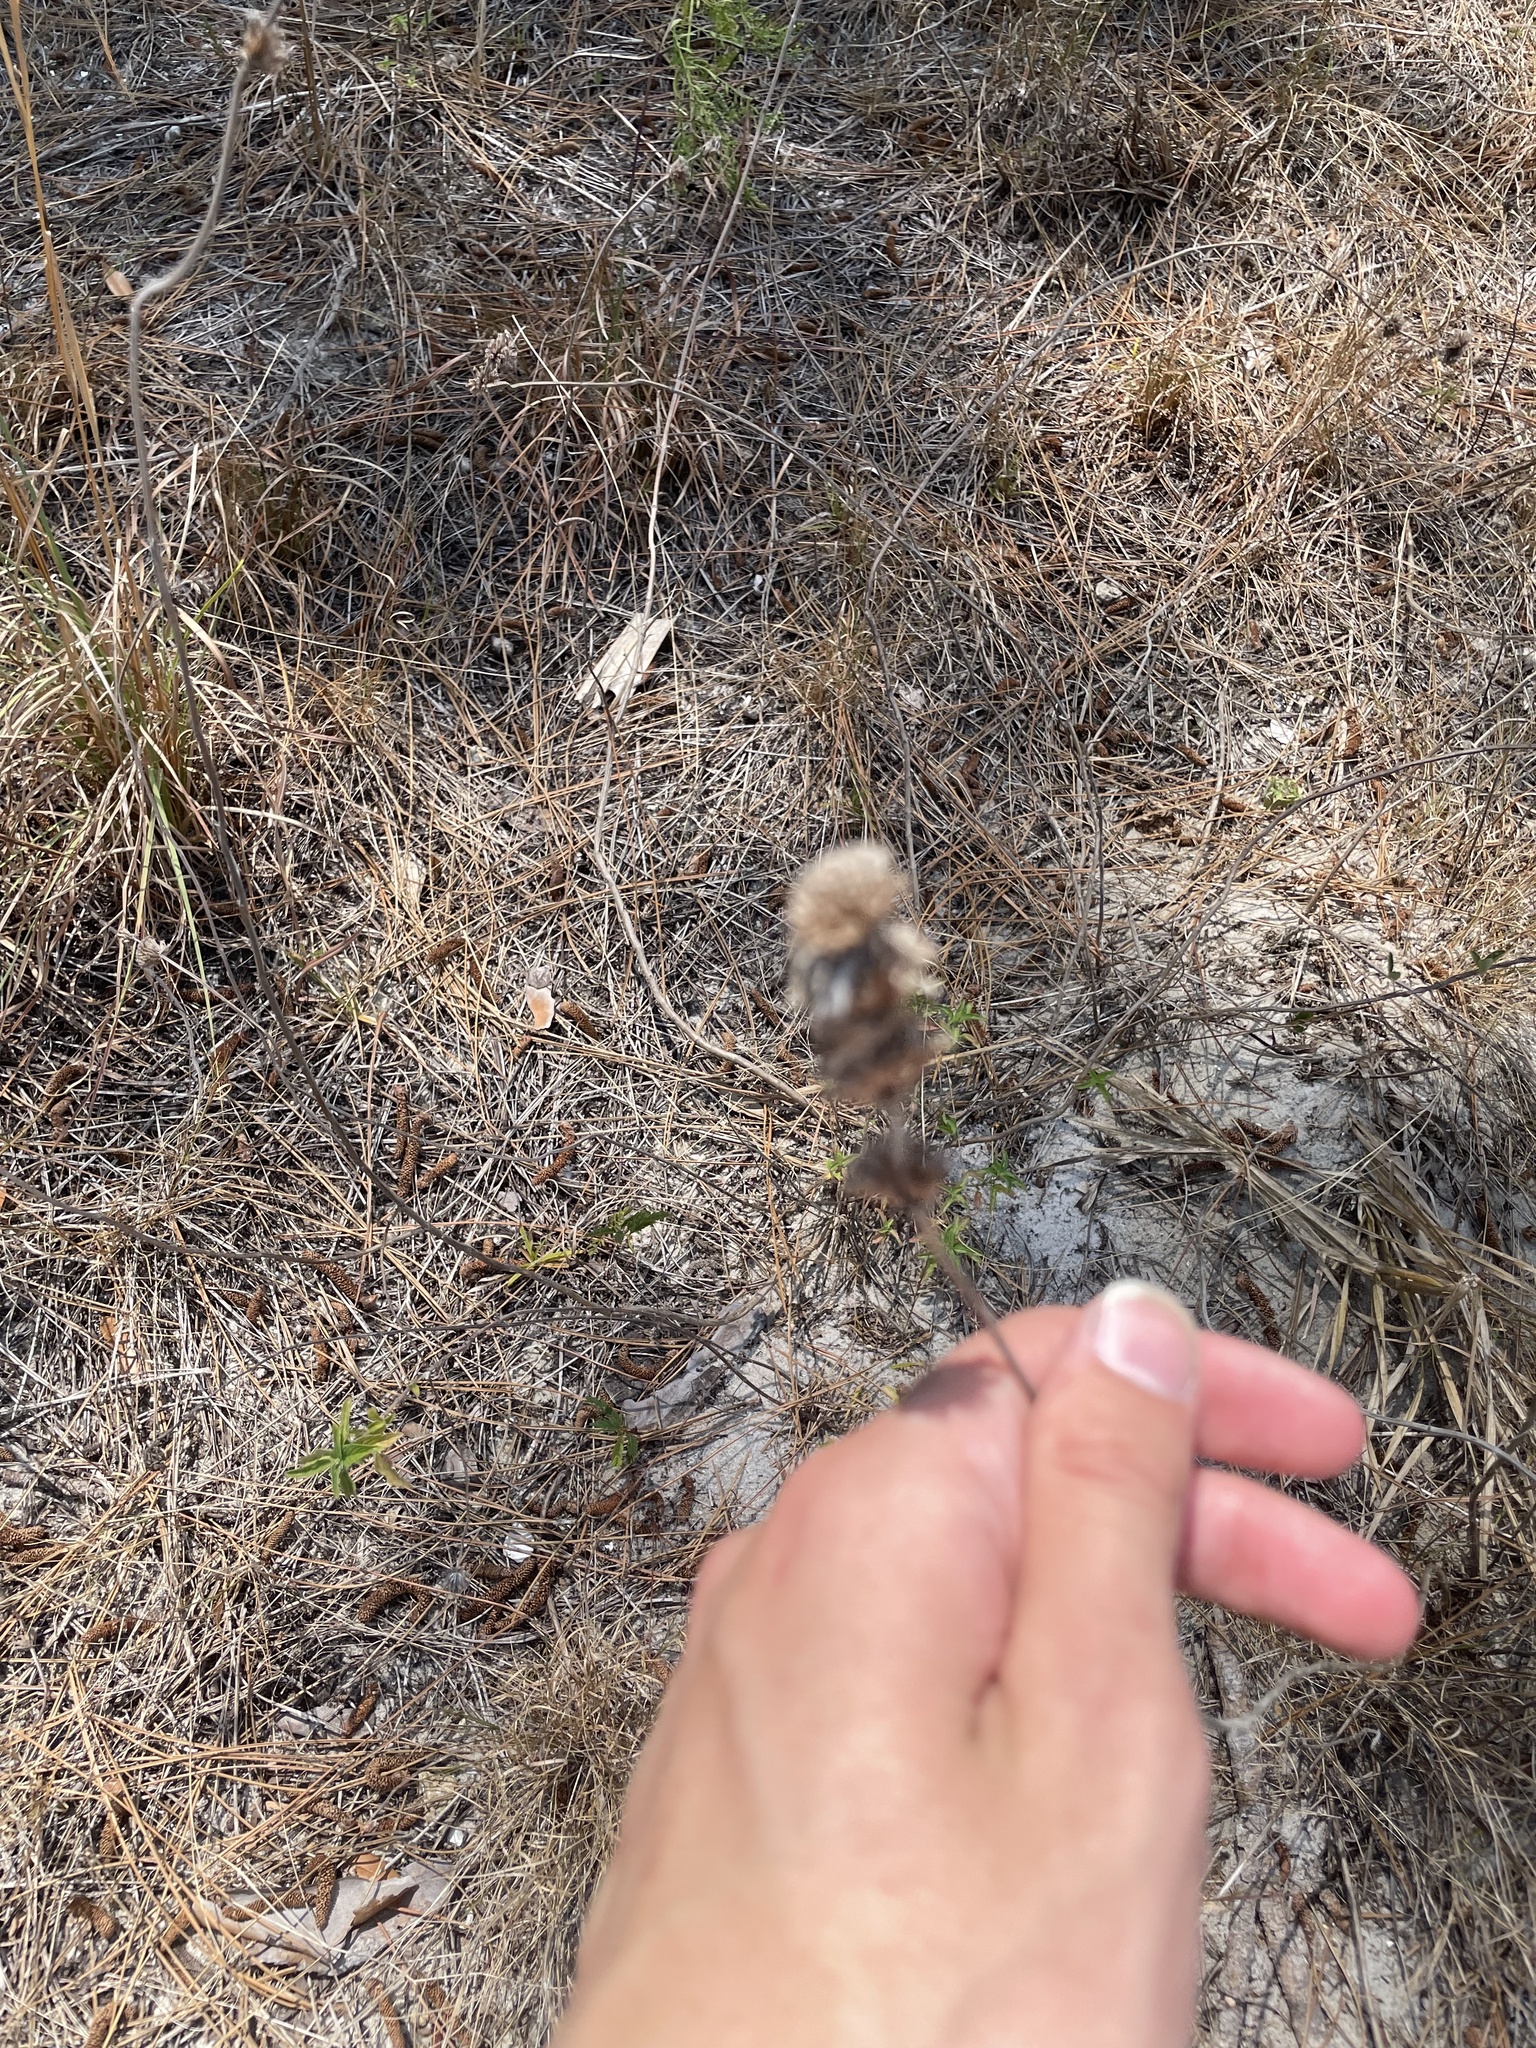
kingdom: Plantae
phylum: Tracheophyta
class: Magnoliopsida
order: Lamiales
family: Lamiaceae
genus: Monarda
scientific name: Monarda punctata
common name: Dotted monarda
